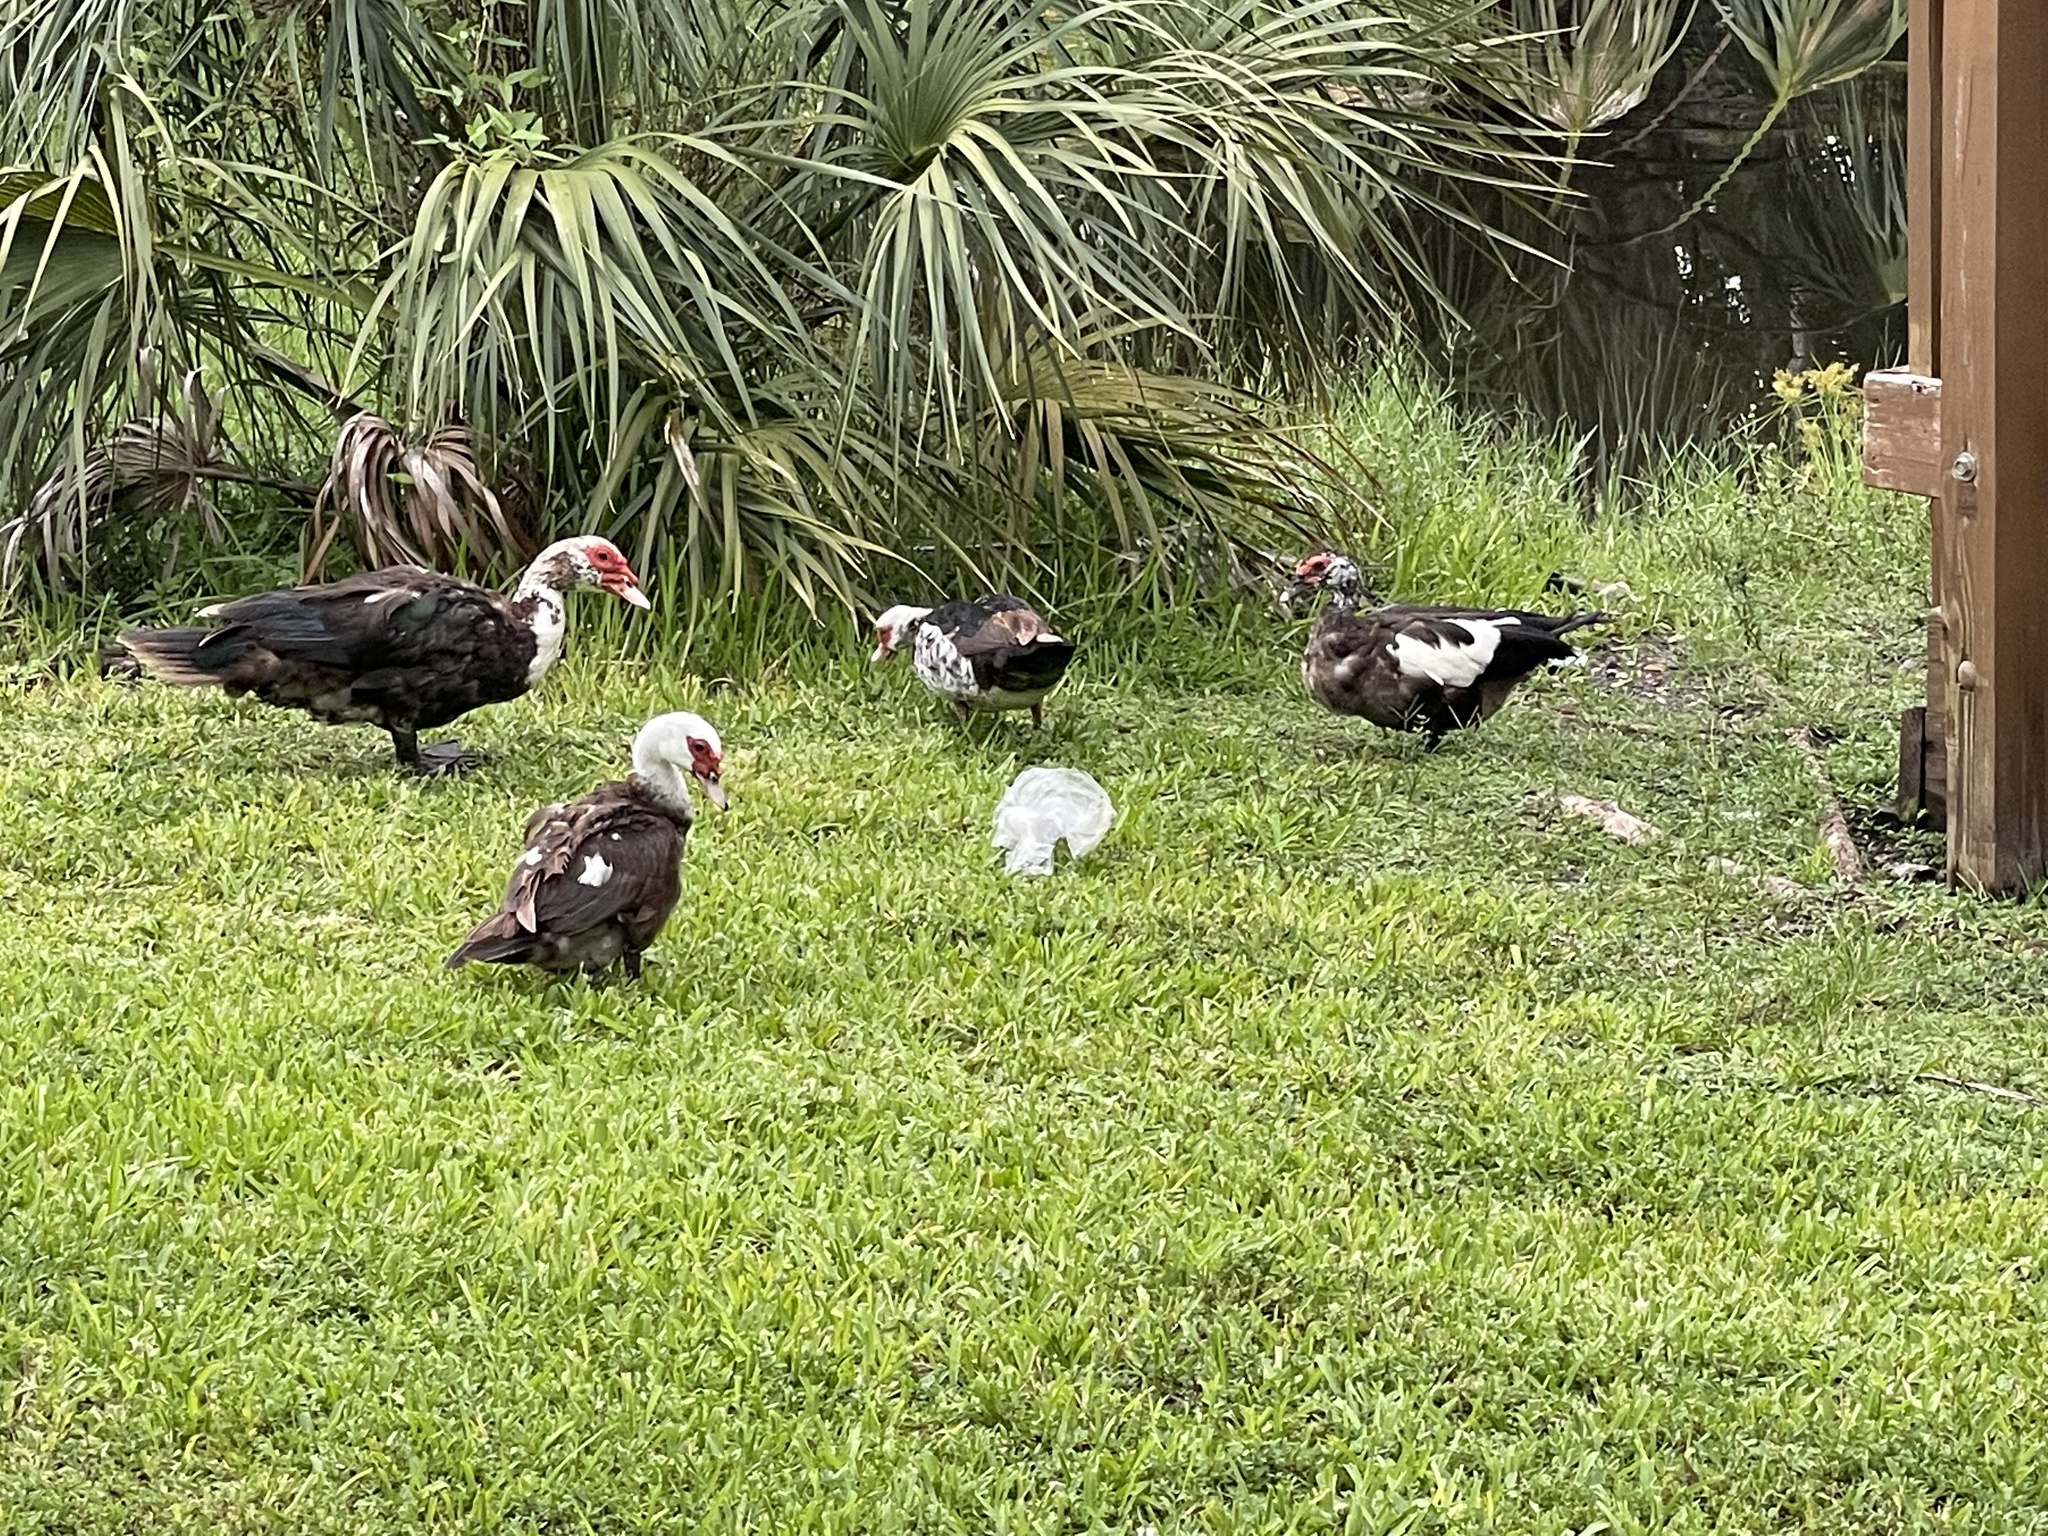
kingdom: Animalia
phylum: Chordata
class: Aves
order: Anseriformes
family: Anatidae
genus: Cairina
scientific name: Cairina moschata
